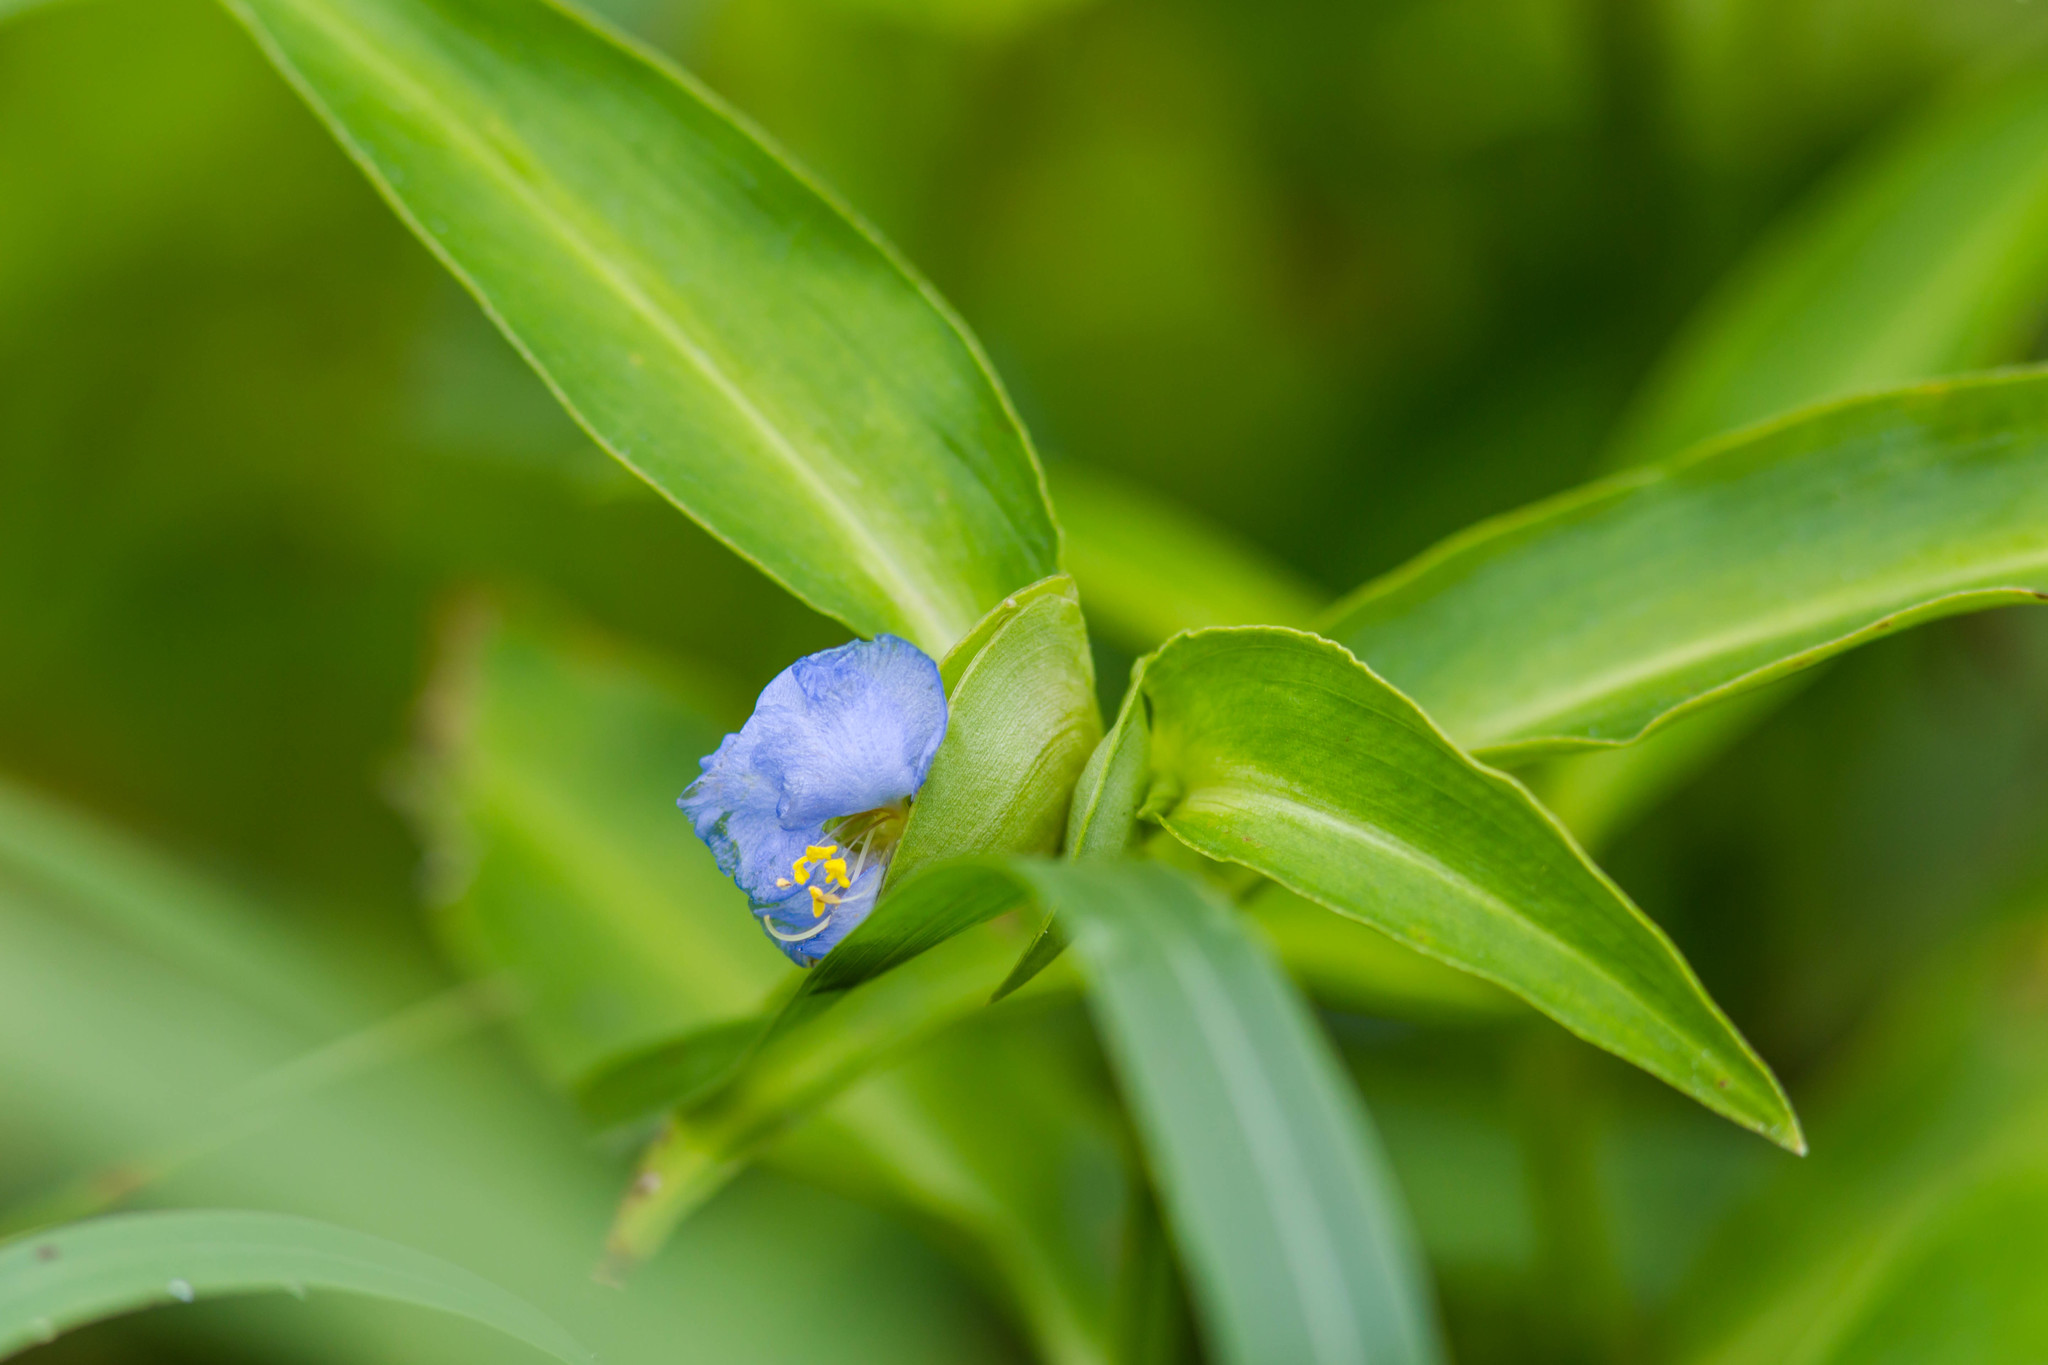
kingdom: Plantae
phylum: Tracheophyta
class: Liliopsida
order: Commelinales
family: Commelinaceae
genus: Commelina
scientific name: Commelina virginica
